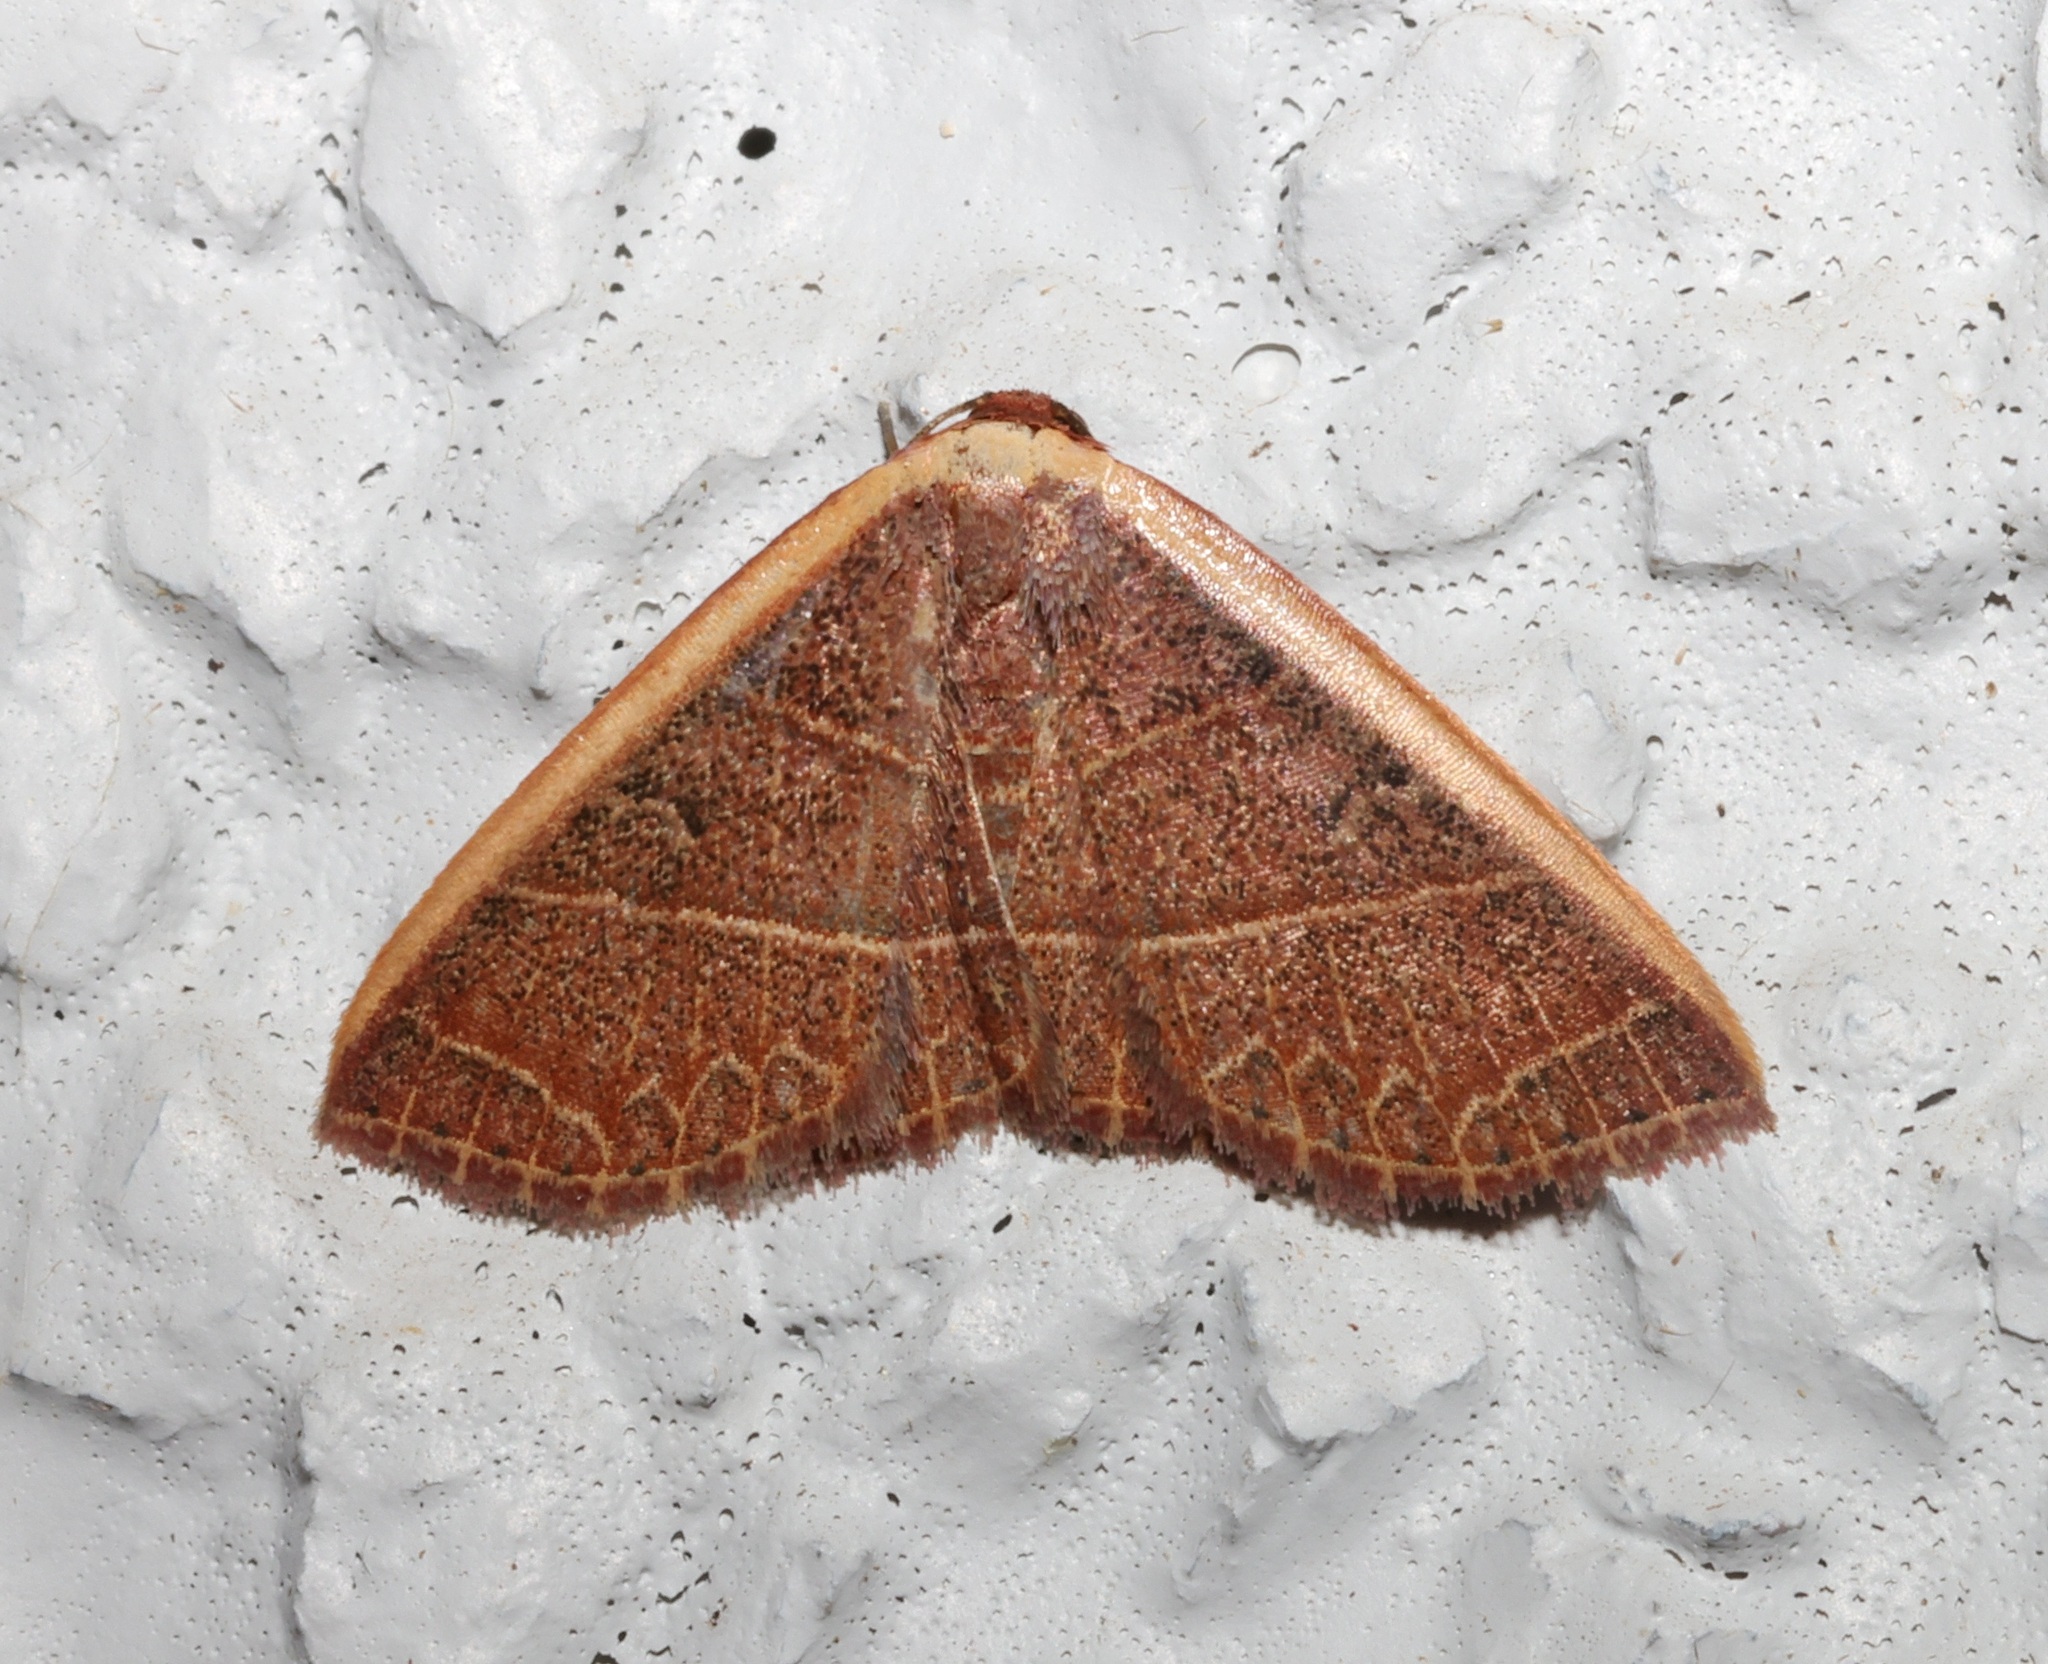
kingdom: Animalia
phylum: Arthropoda
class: Insecta
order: Lepidoptera
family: Noctuidae
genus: Oruza
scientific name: Oruza mira
